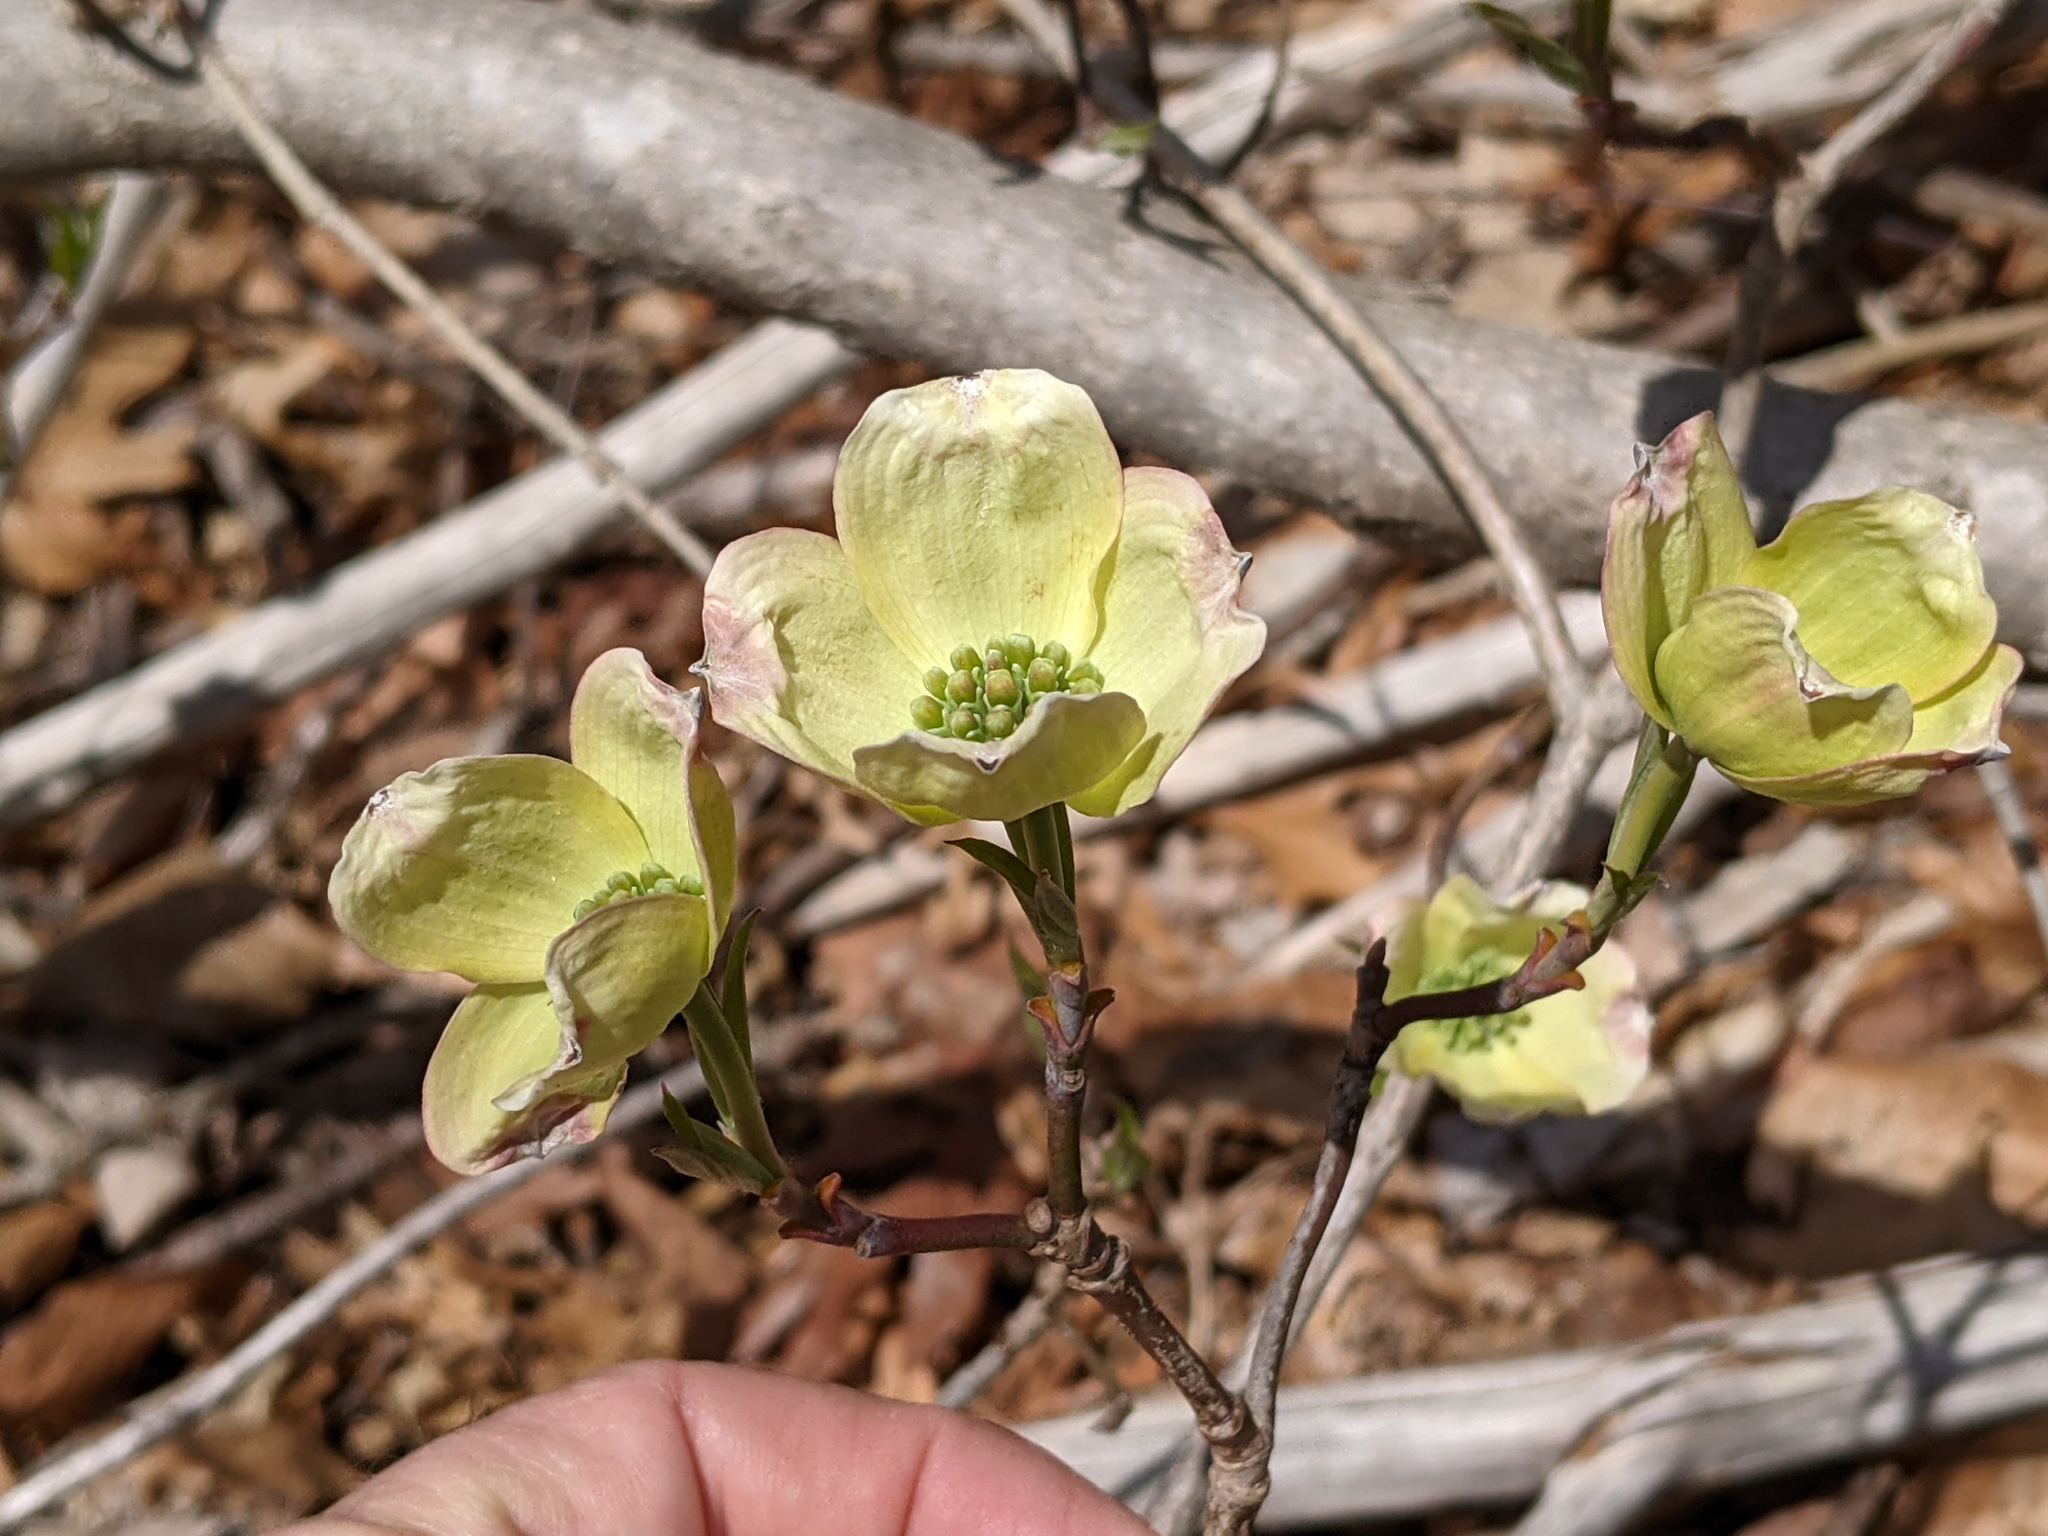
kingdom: Plantae
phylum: Tracheophyta
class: Magnoliopsida
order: Cornales
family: Cornaceae
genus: Cornus
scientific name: Cornus florida
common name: Flowering dogwood
